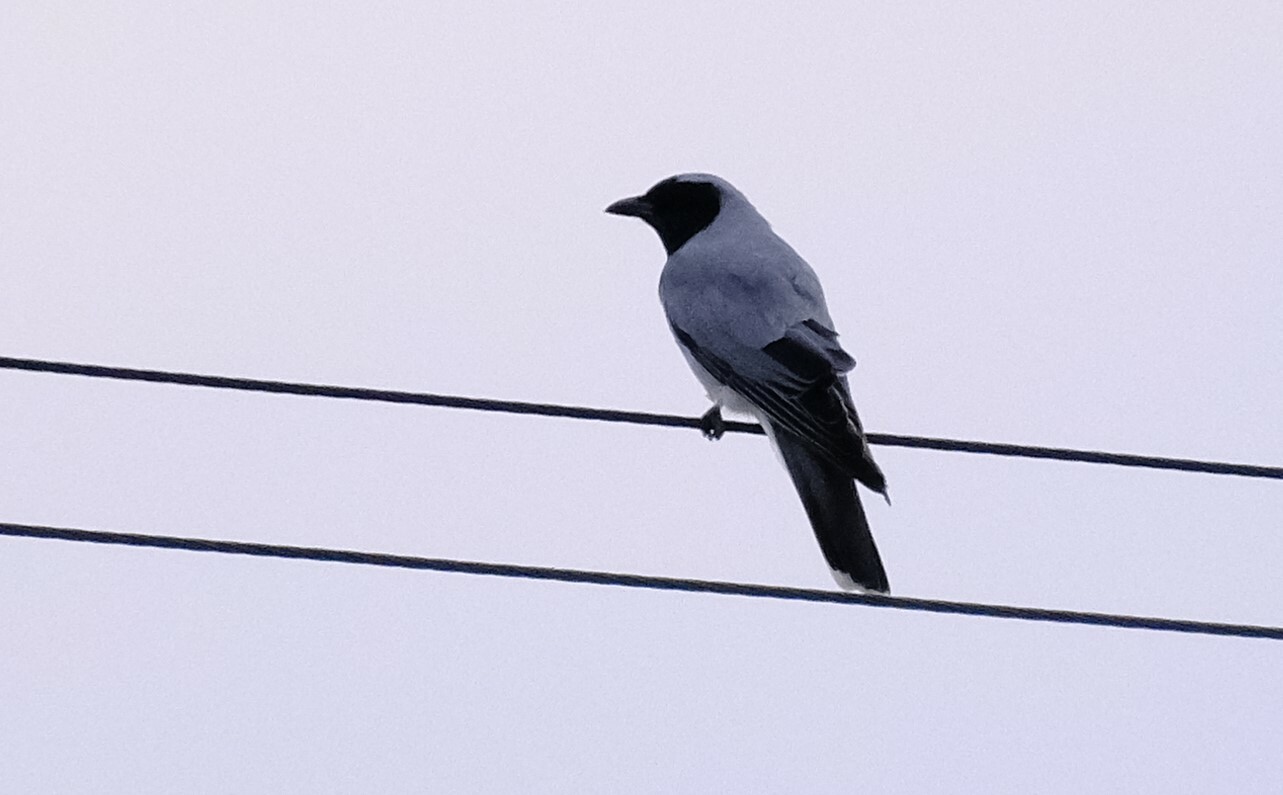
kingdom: Animalia
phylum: Chordata
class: Aves
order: Passeriformes
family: Campephagidae
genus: Coracina
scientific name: Coracina novaehollandiae
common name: Black-faced cuckooshrike
